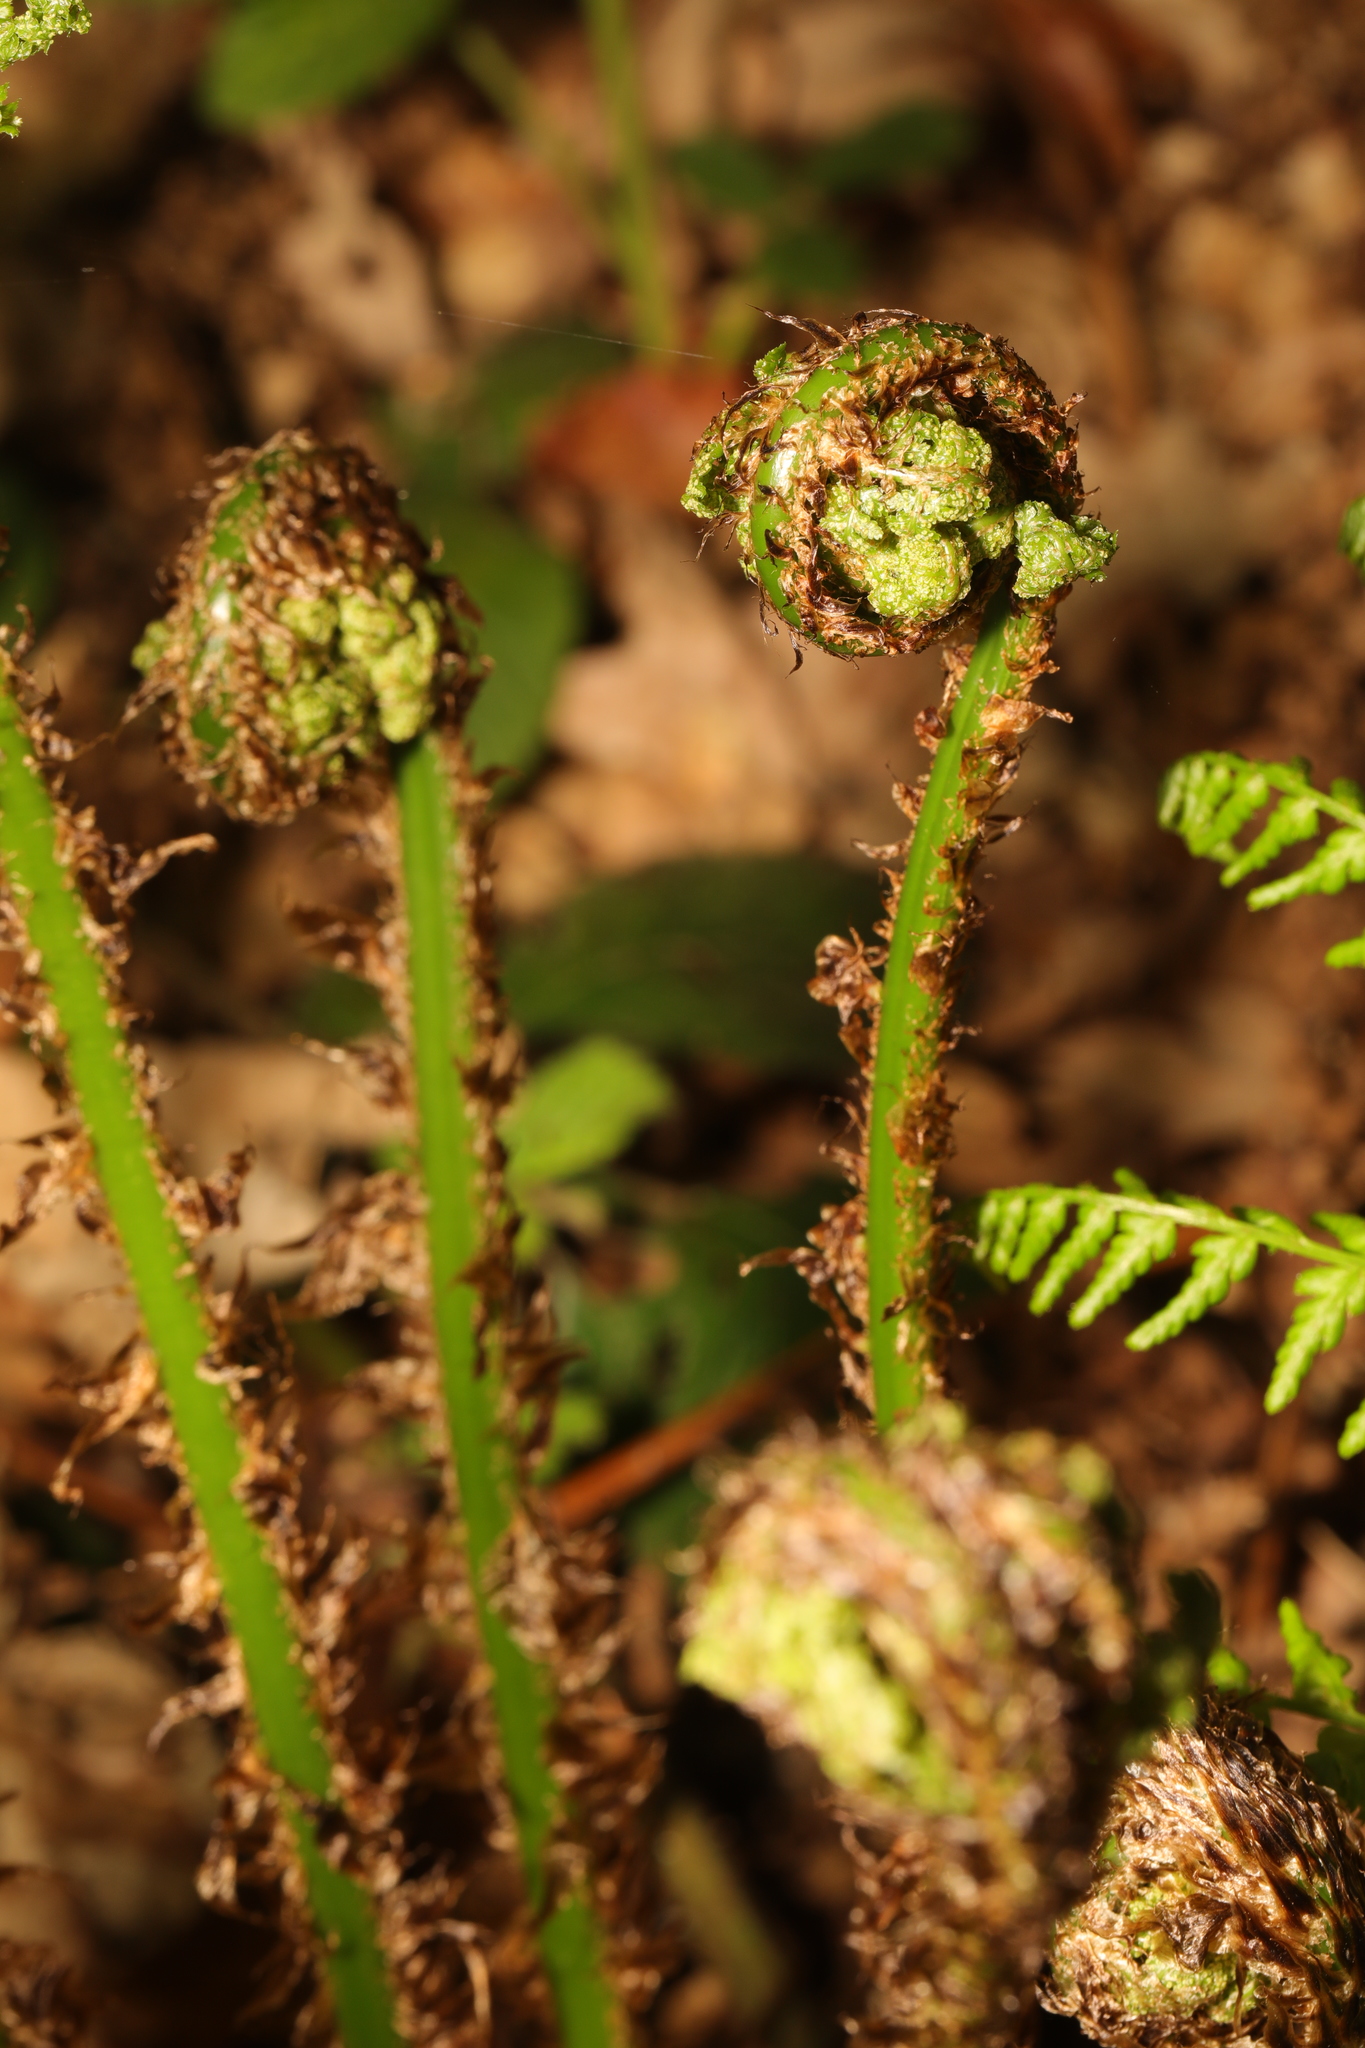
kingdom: Plantae
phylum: Tracheophyta
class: Polypodiopsida
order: Polypodiales
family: Dryopteridaceae
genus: Dryopteris
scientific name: Dryopteris dilatata
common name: Broad buckler-fern
